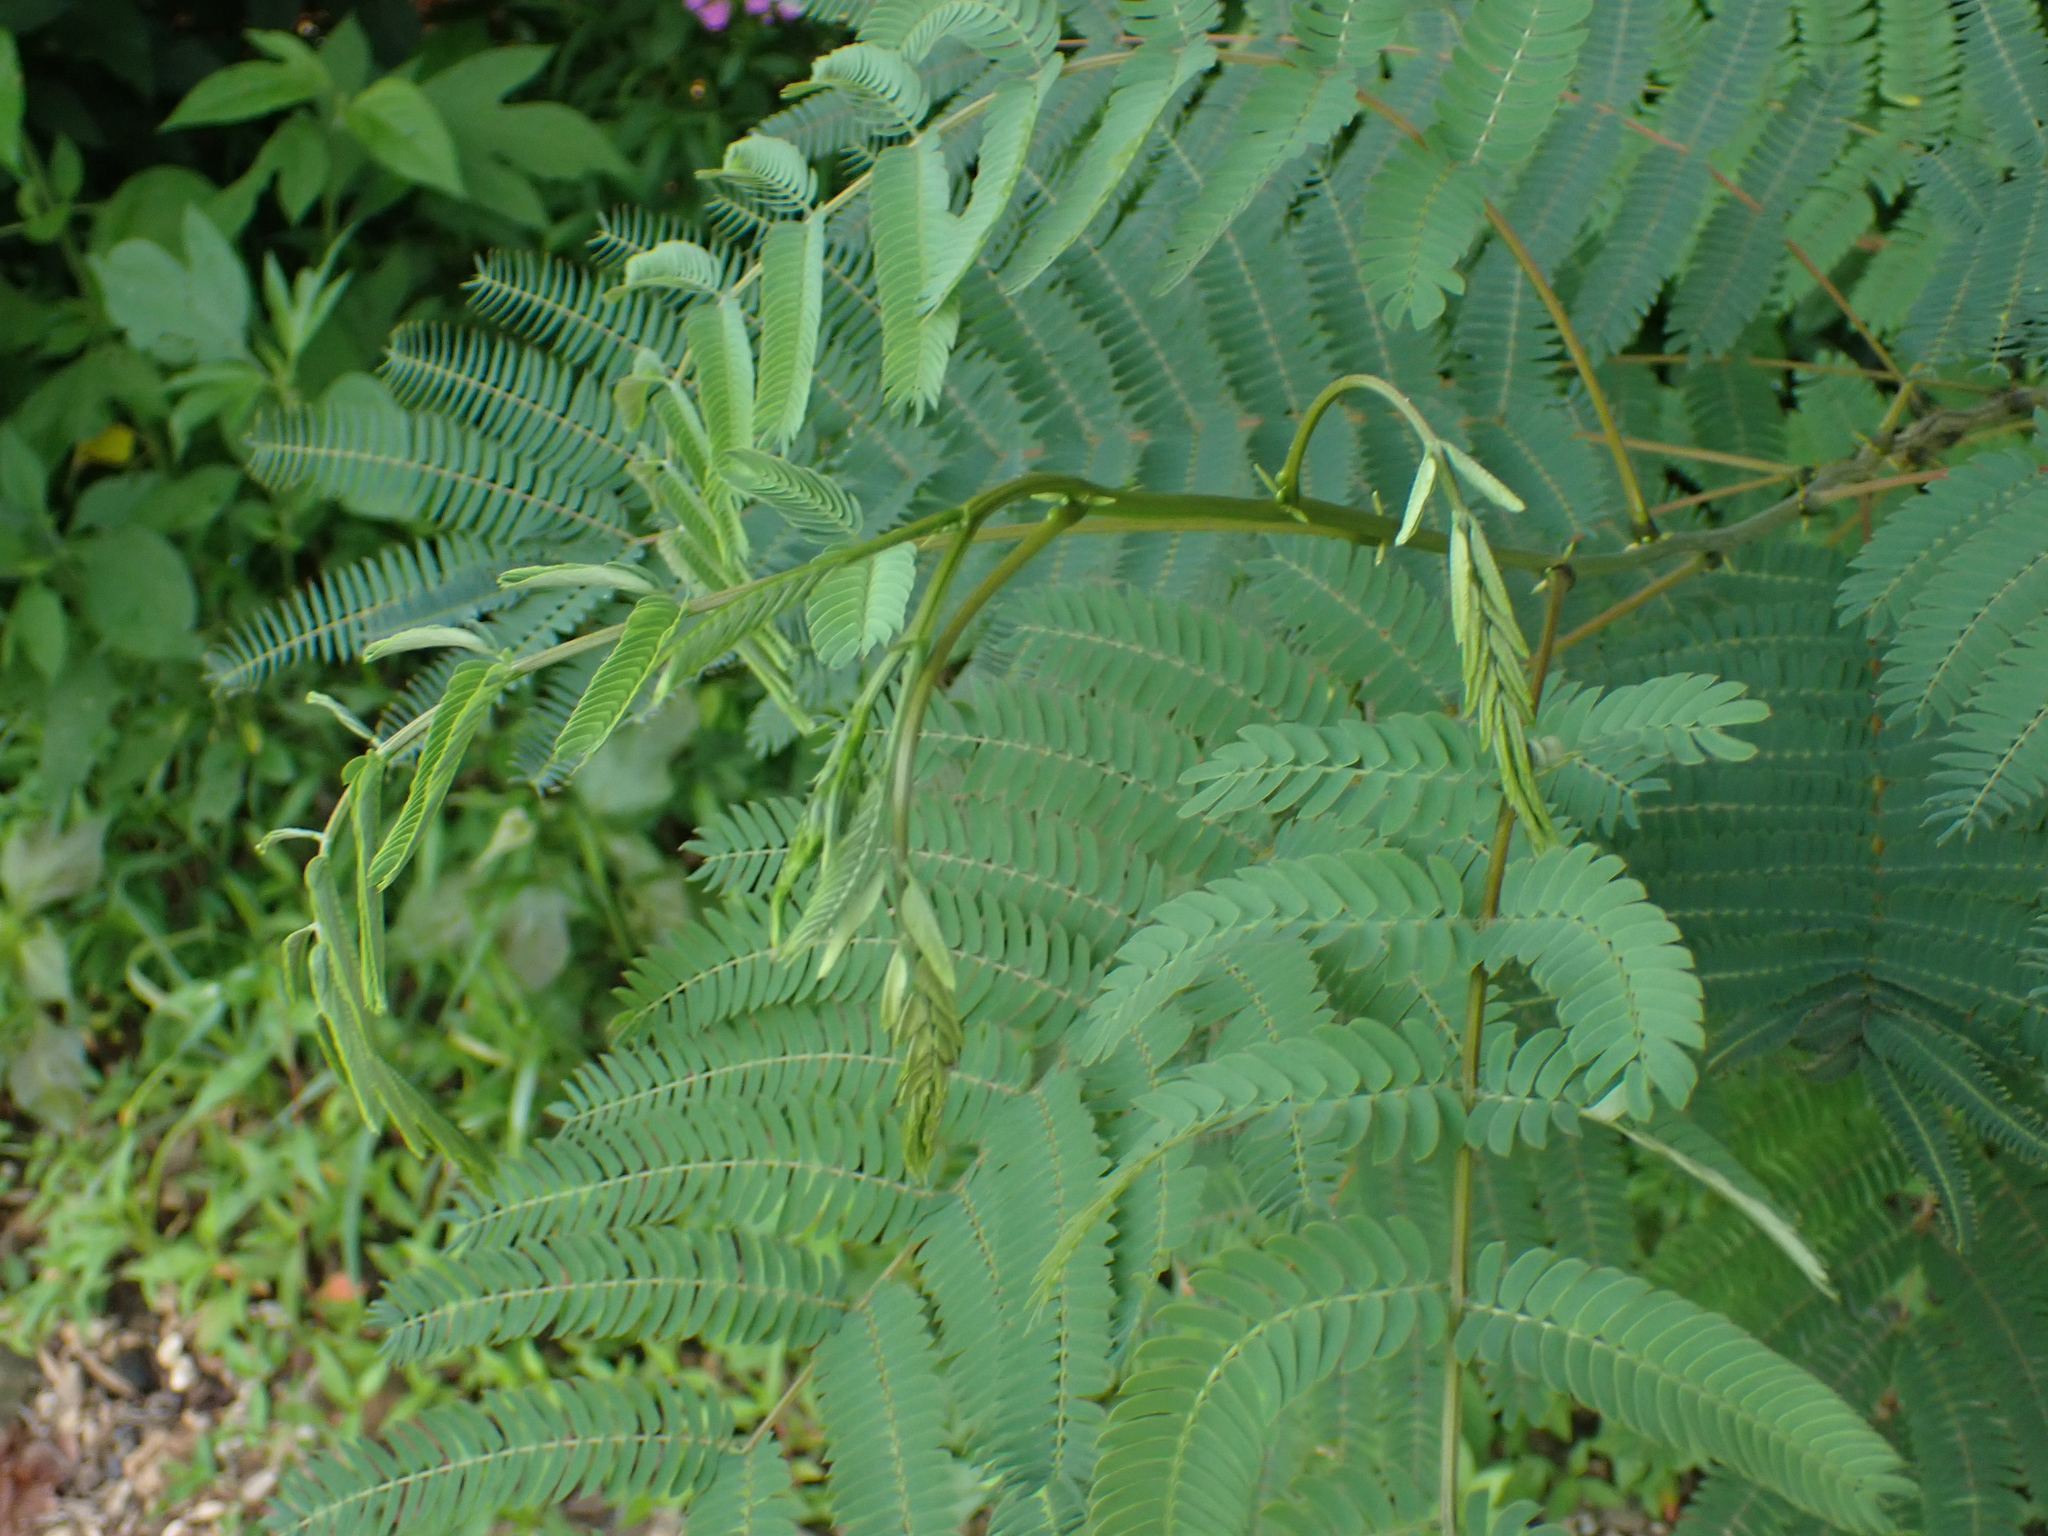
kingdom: Plantae
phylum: Tracheophyta
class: Magnoliopsida
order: Fabales
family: Fabaceae
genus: Albizia
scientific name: Albizia julibrissin
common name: Silktree
